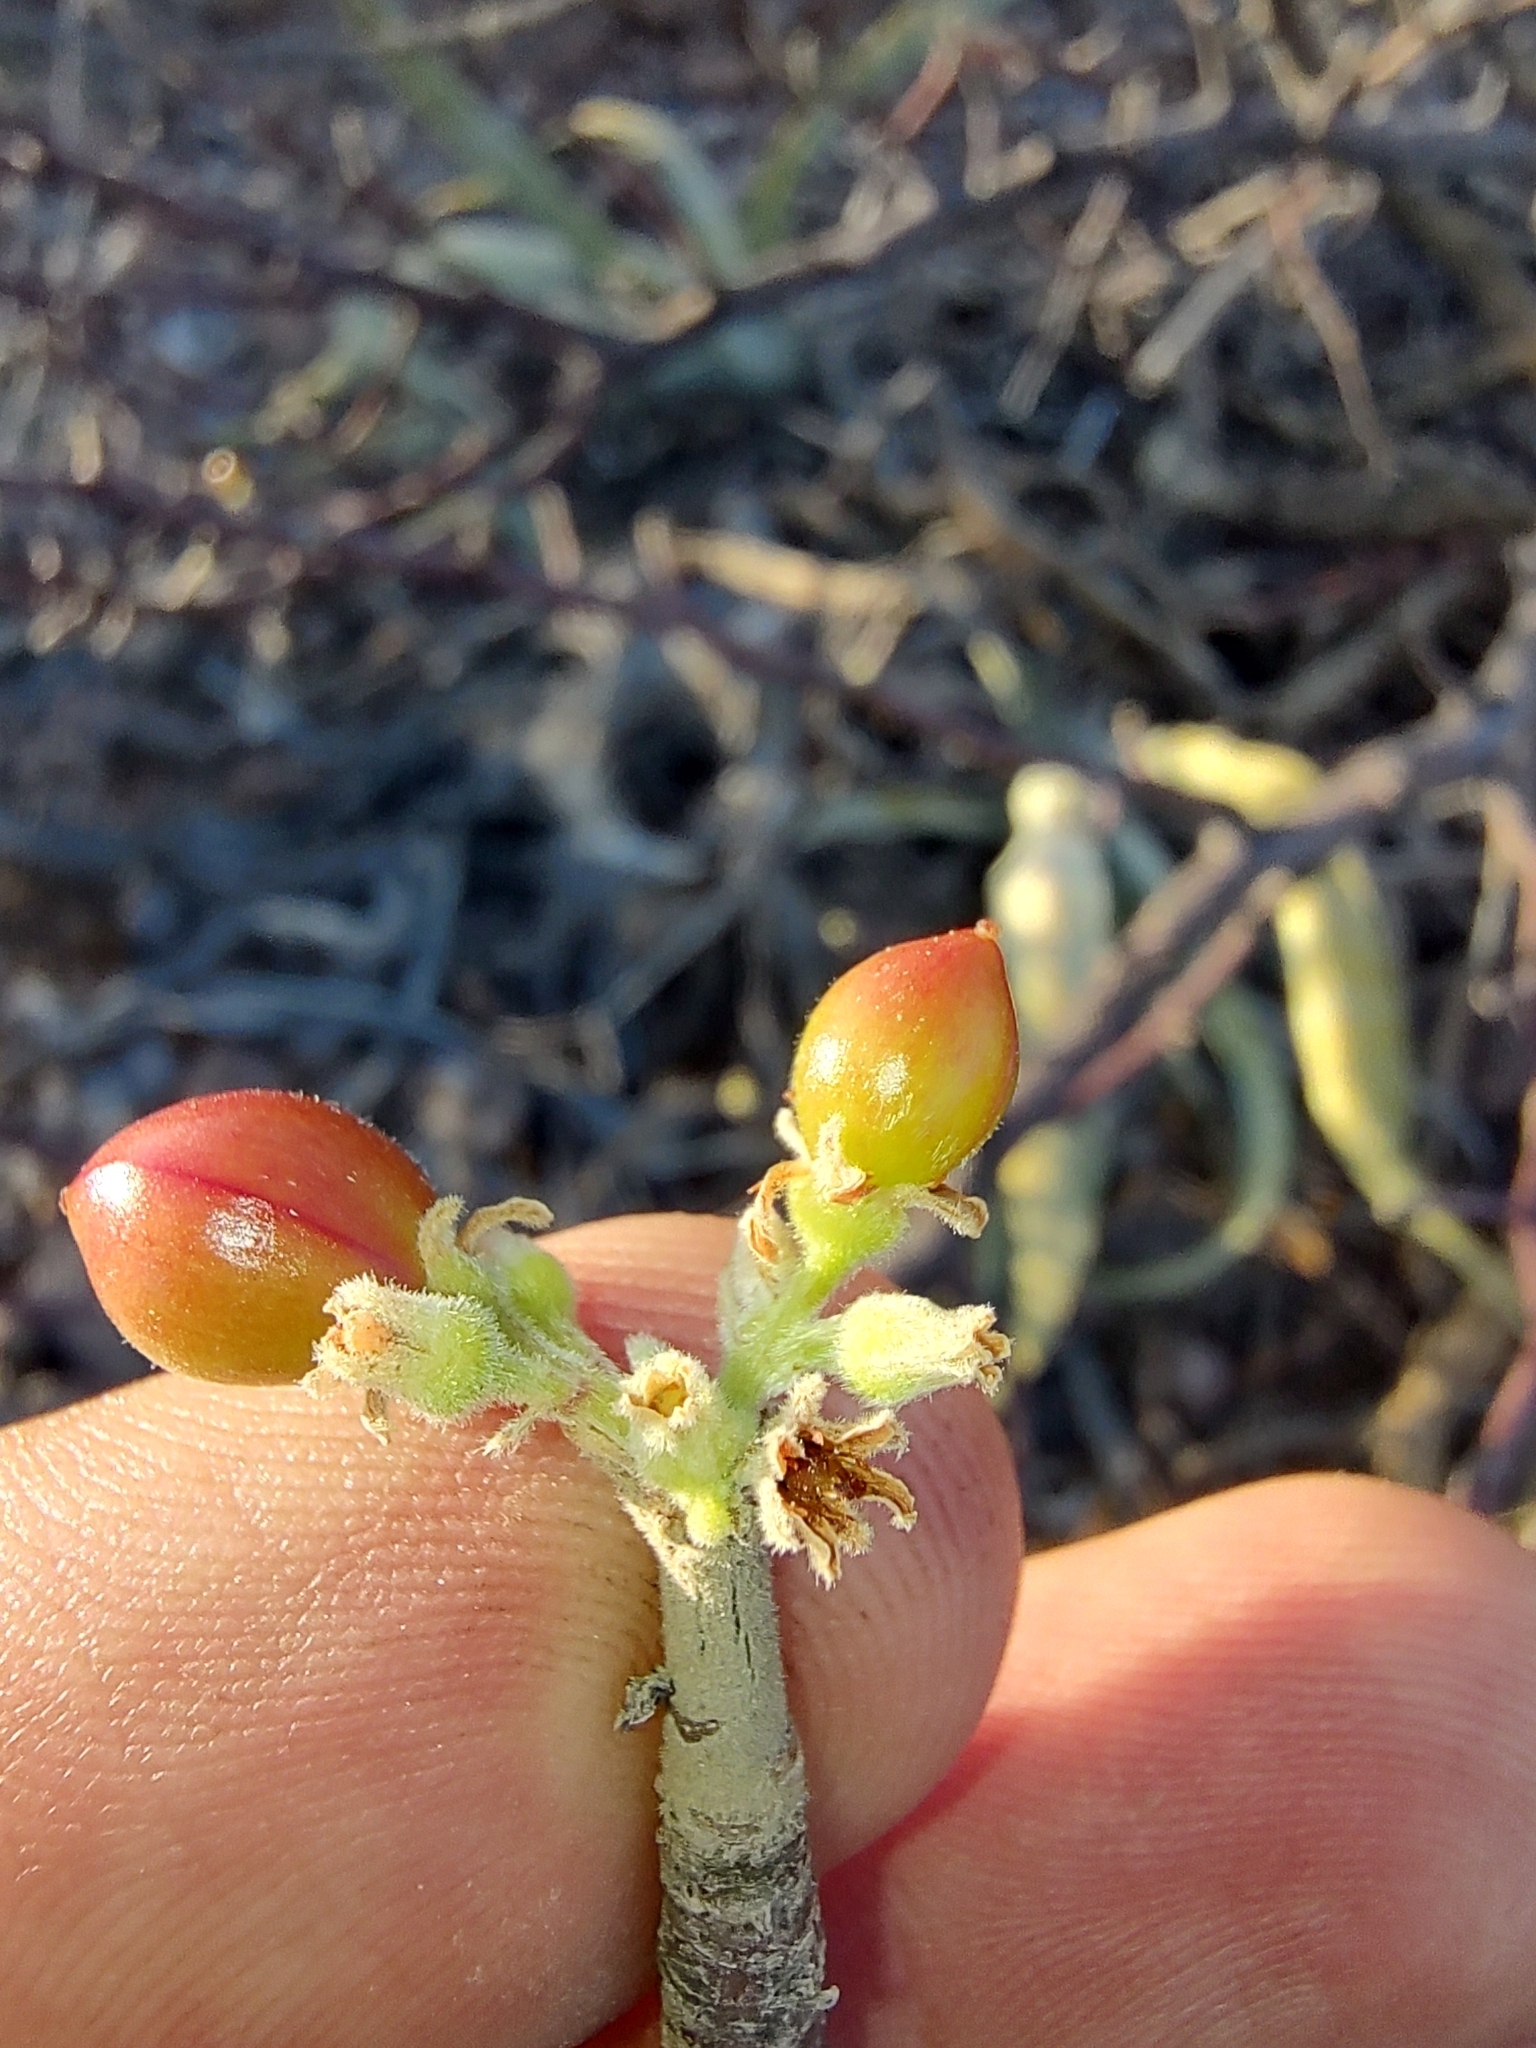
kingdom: Plantae
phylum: Tracheophyta
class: Magnoliopsida
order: Sapindales
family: Burseraceae
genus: Bursera
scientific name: Bursera hindsiana
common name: Red elephant tree
